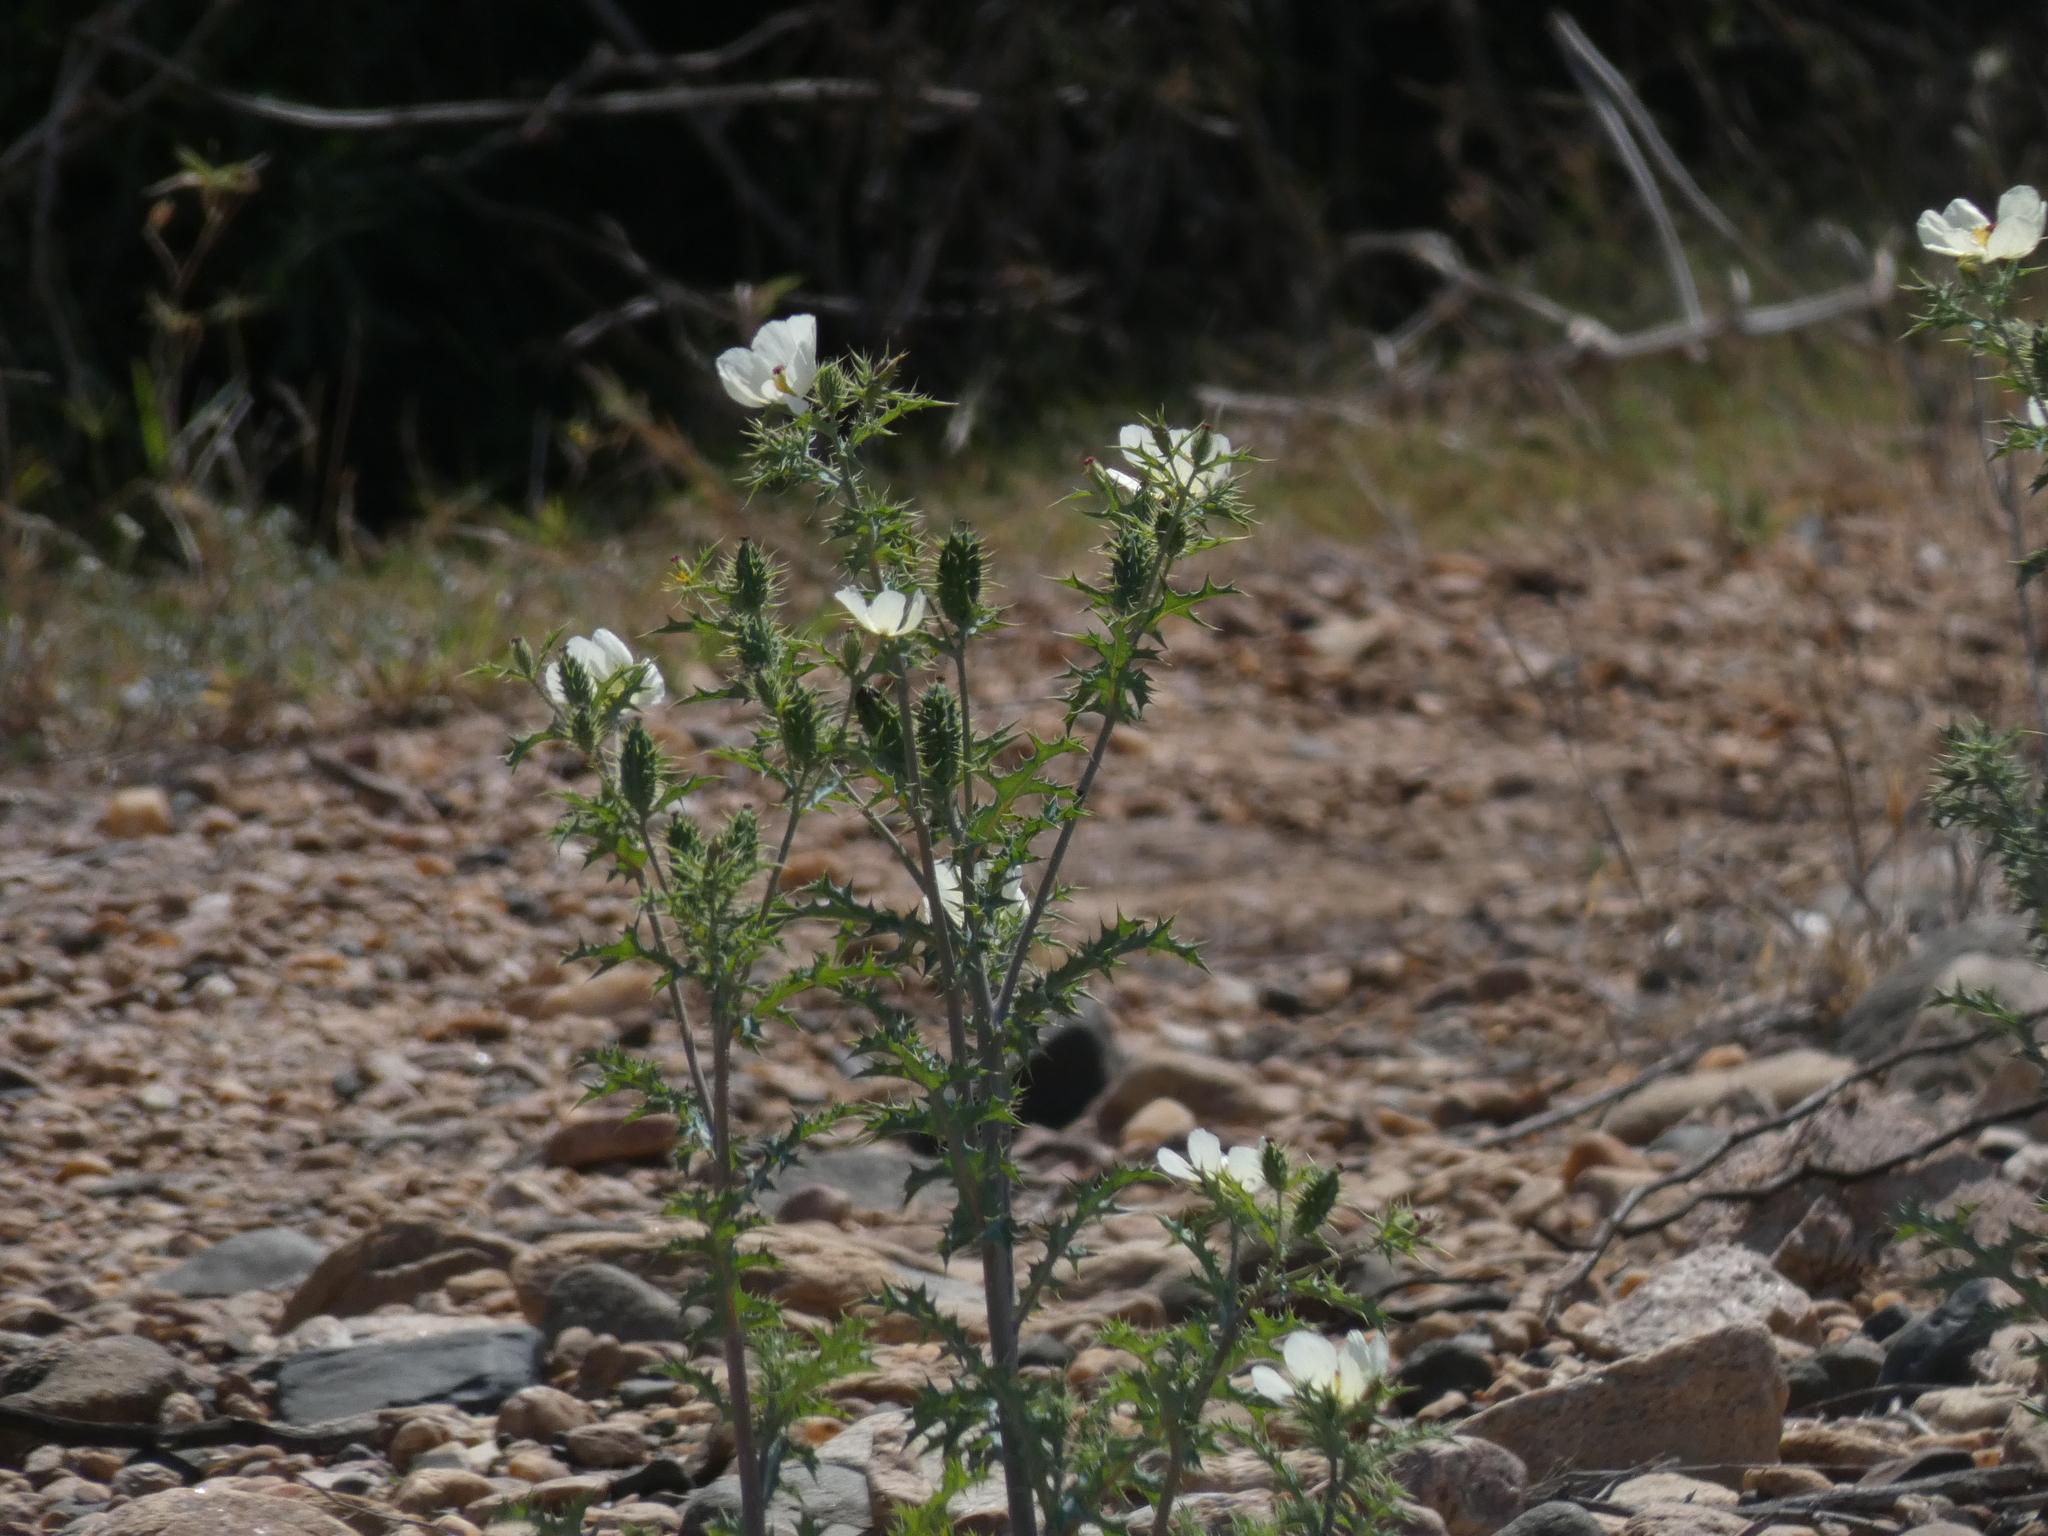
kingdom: Plantae
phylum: Tracheophyta
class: Magnoliopsida
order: Ranunculales
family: Papaveraceae
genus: Argemone
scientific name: Argemone ochroleuca
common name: White-flower mexican-poppy
